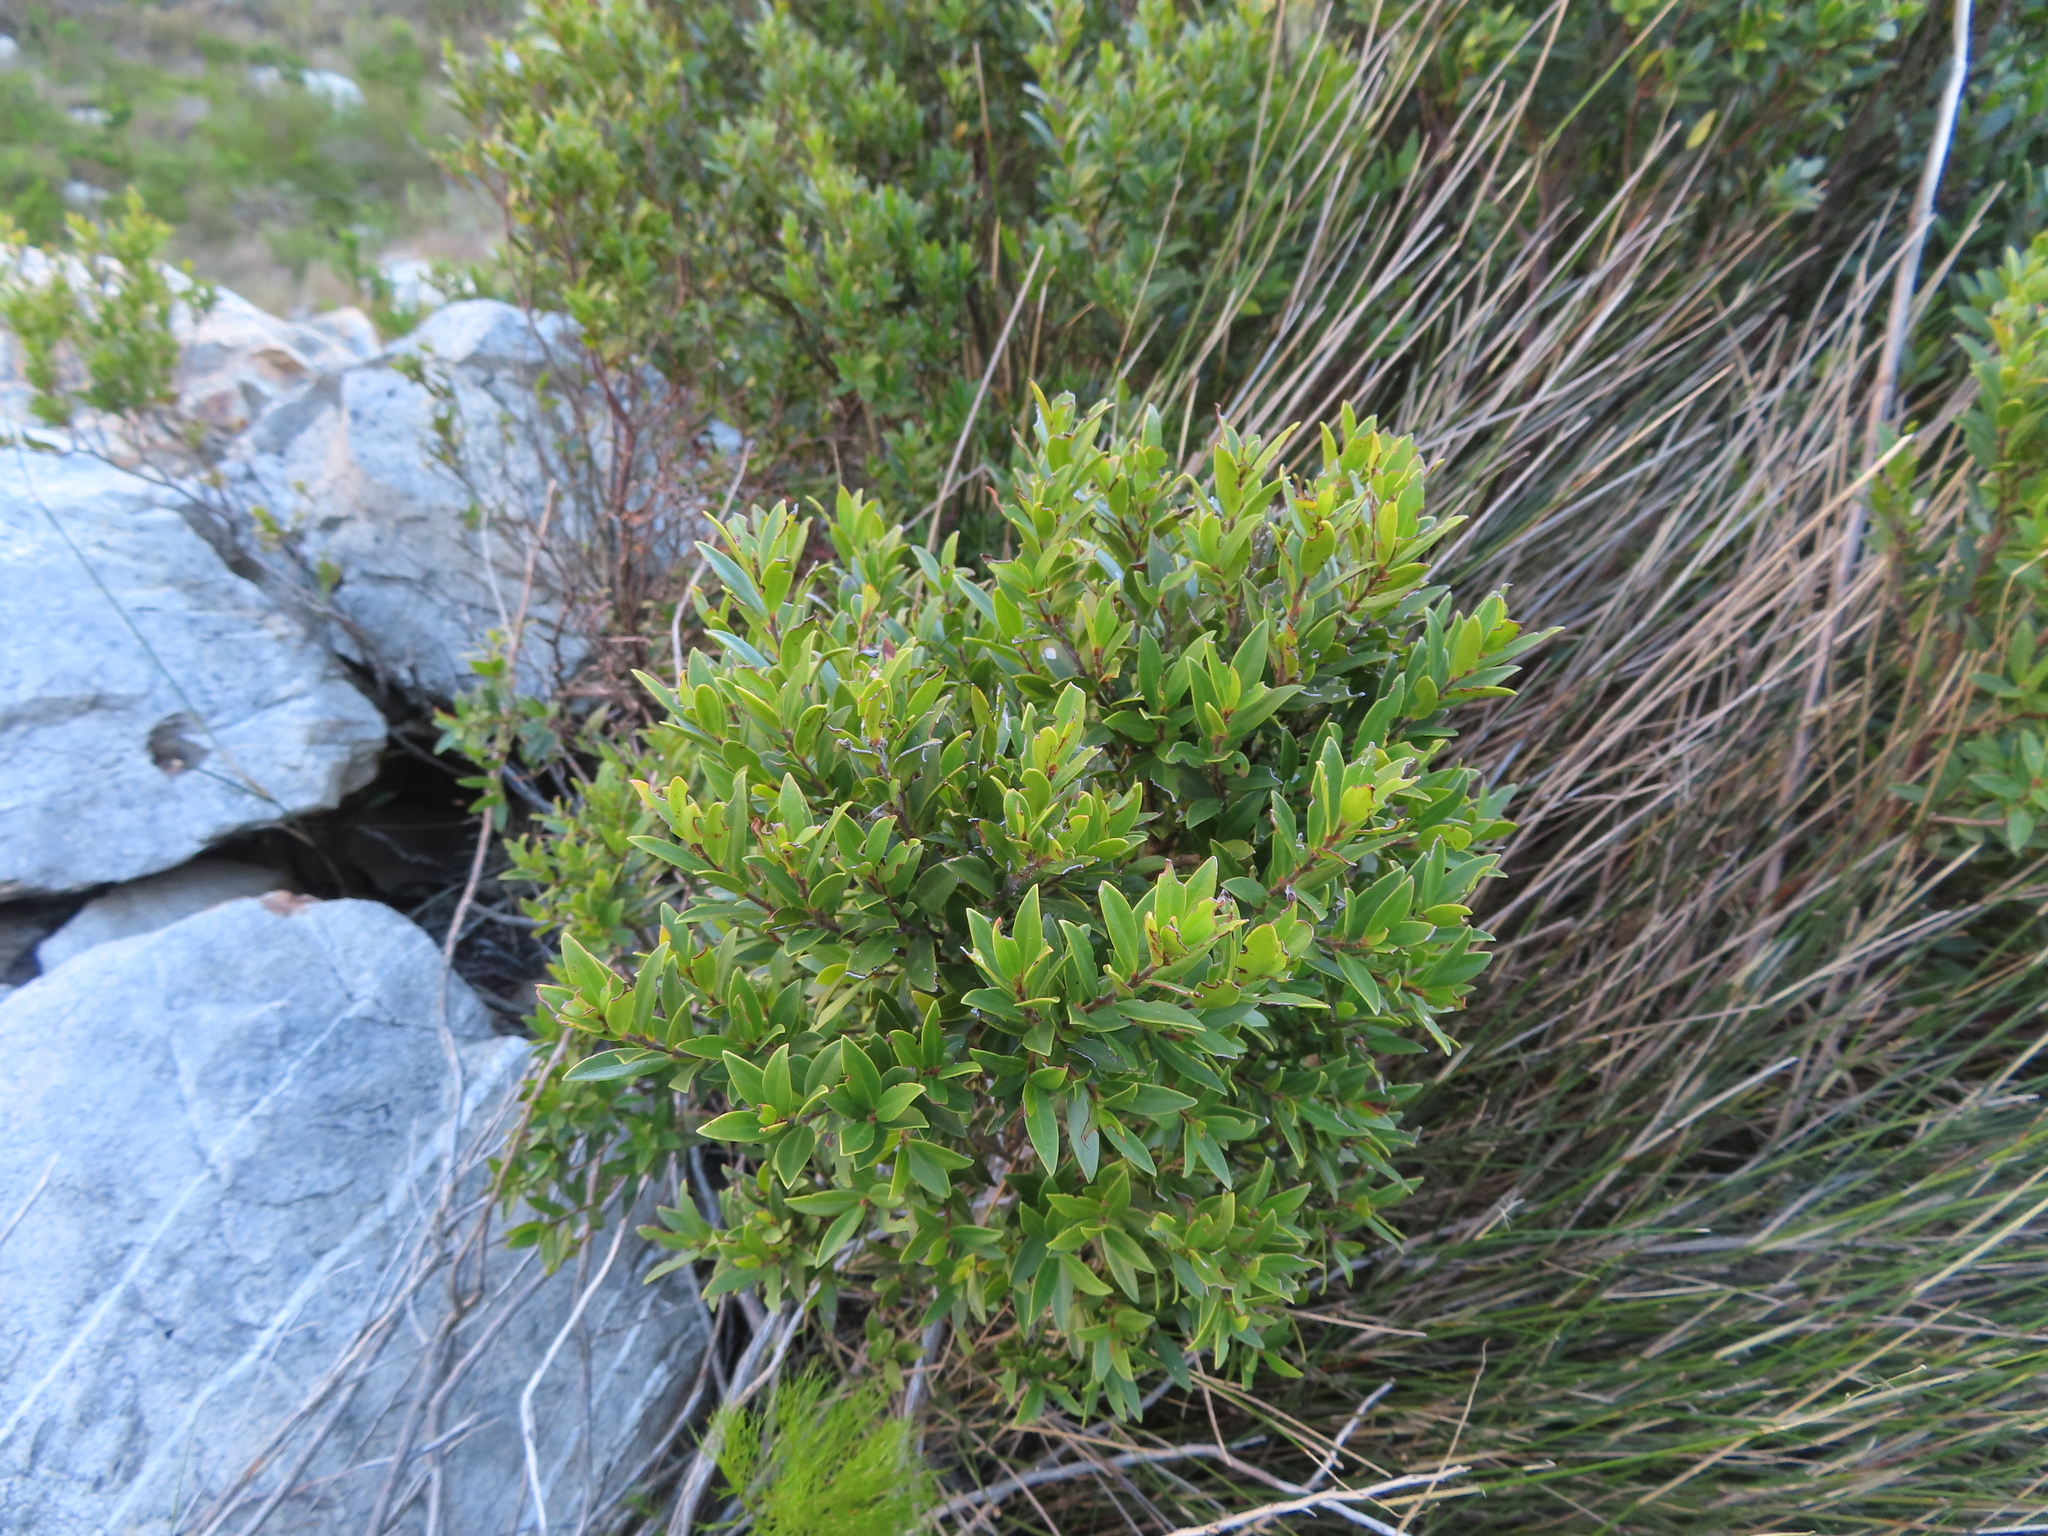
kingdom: Plantae
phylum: Tracheophyta
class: Magnoliopsida
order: Ericales
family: Ebenaceae
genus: Diospyros
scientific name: Diospyros glabra
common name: Fynbos star apple
